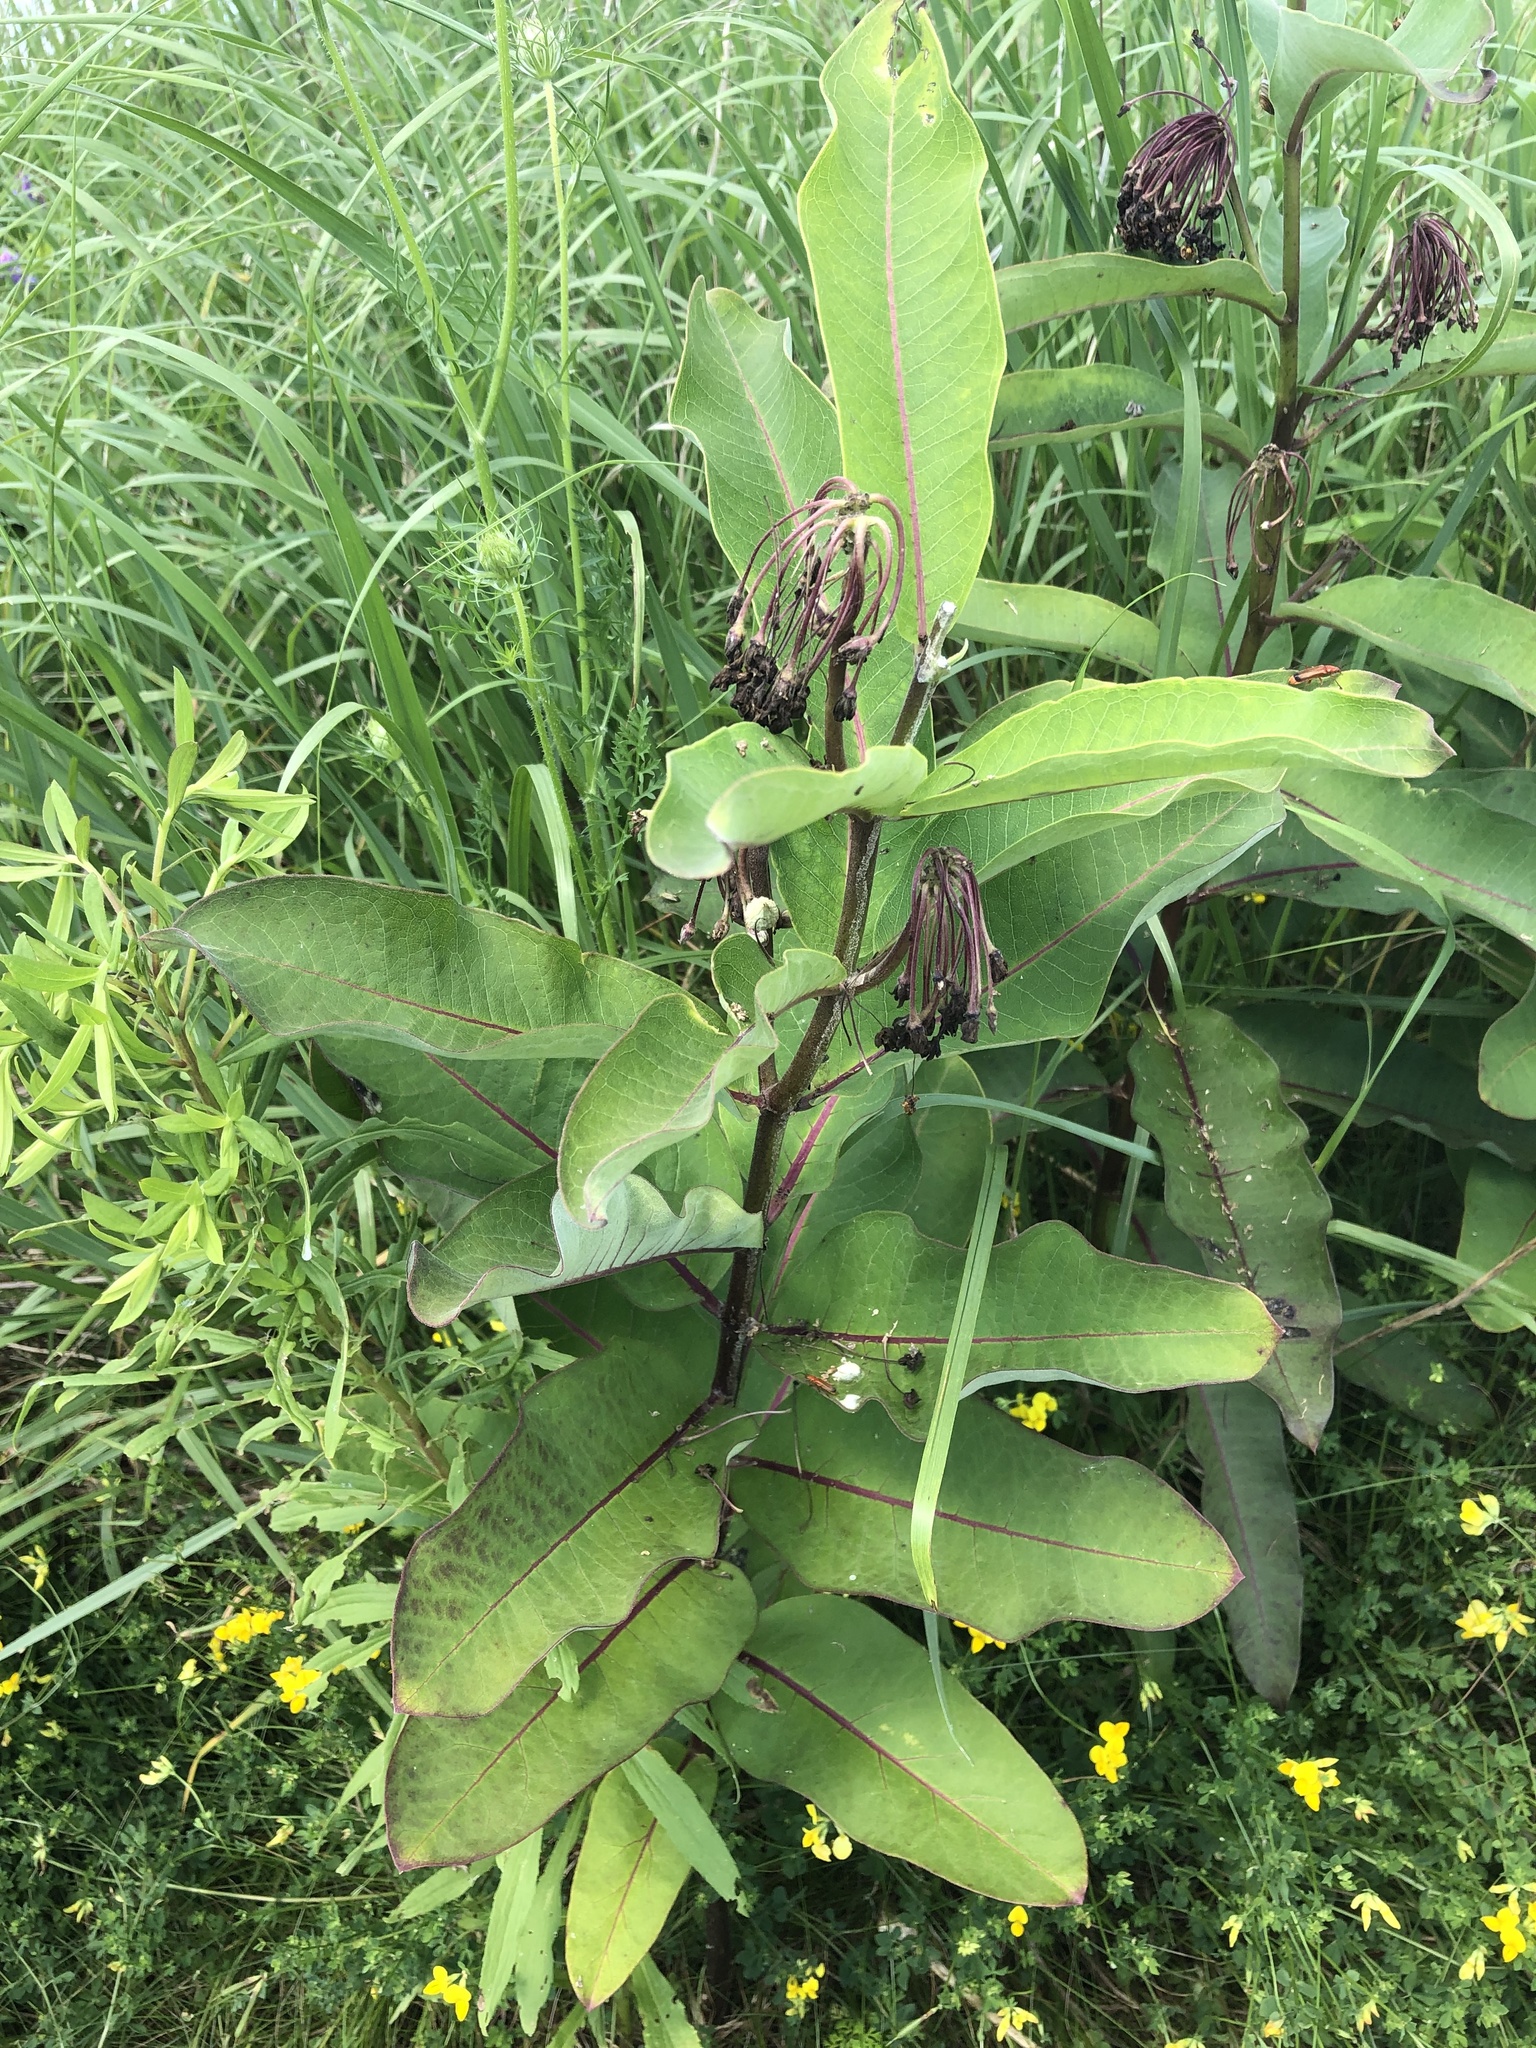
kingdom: Plantae
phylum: Tracheophyta
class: Magnoliopsida
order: Gentianales
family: Apocynaceae
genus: Asclepias
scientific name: Asclepias syriaca
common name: Common milkweed
